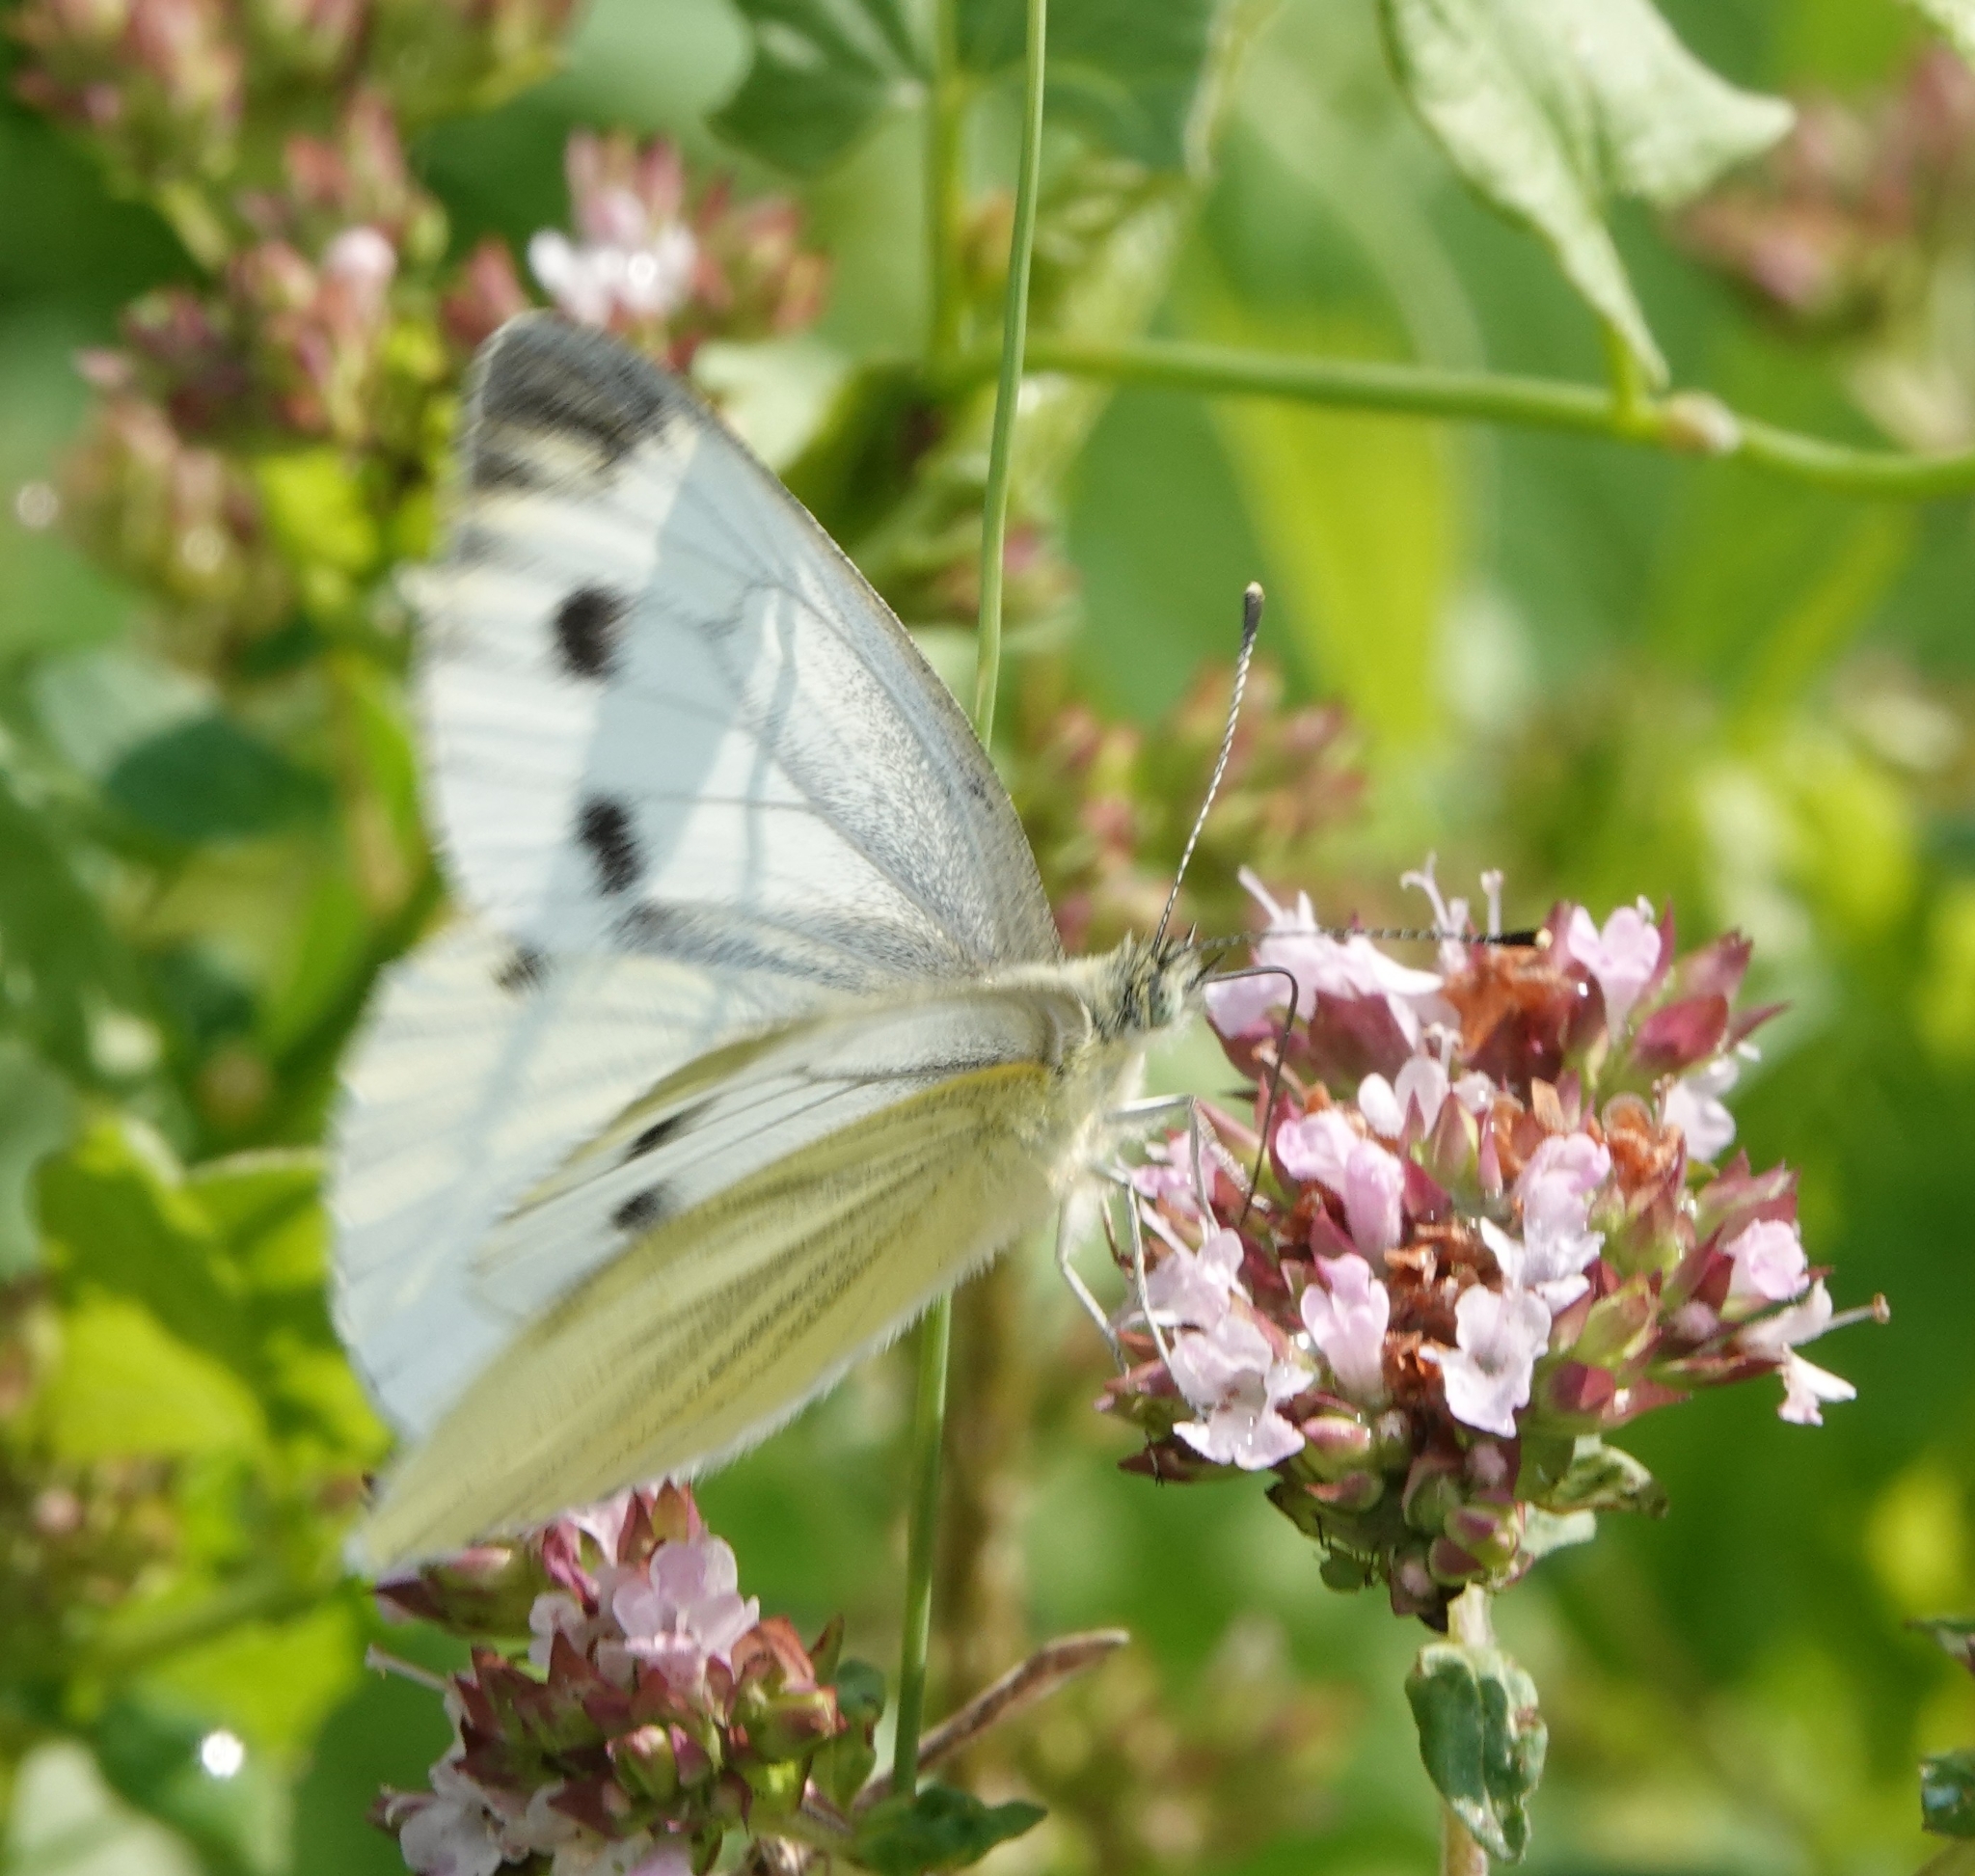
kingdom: Animalia
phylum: Arthropoda
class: Insecta
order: Lepidoptera
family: Pieridae
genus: Pieris
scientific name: Pieris napi
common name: Green-veined white
